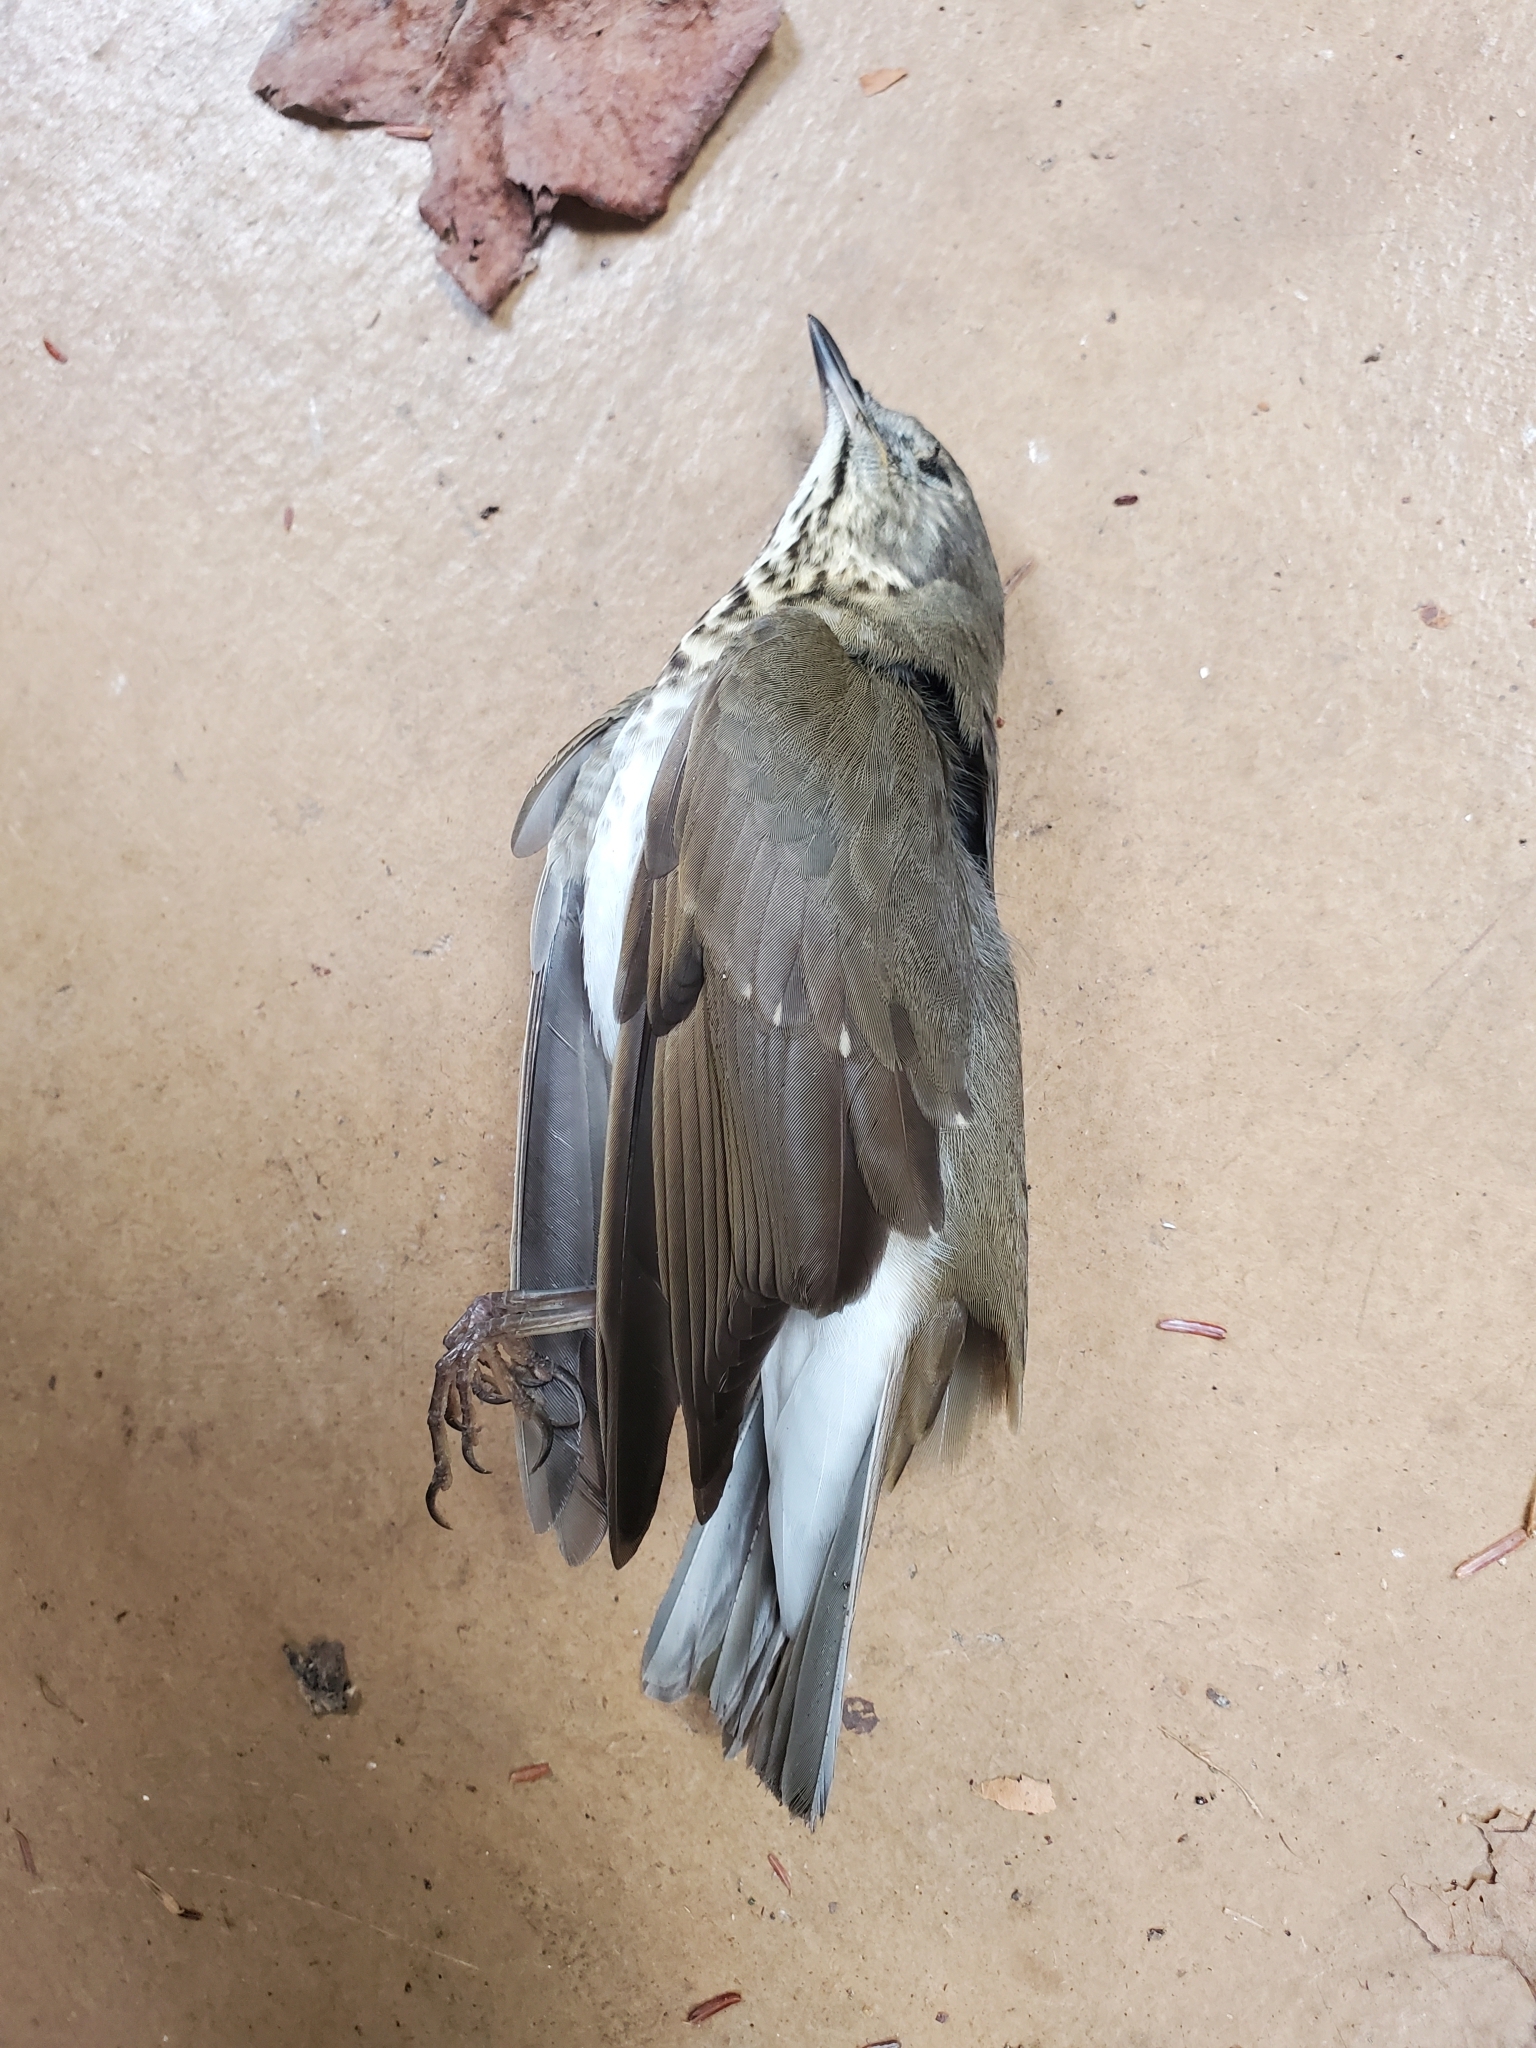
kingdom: Animalia
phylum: Chordata
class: Aves
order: Passeriformes
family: Turdidae
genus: Catharus
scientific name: Catharus ustulatus
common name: Swainson's thrush
